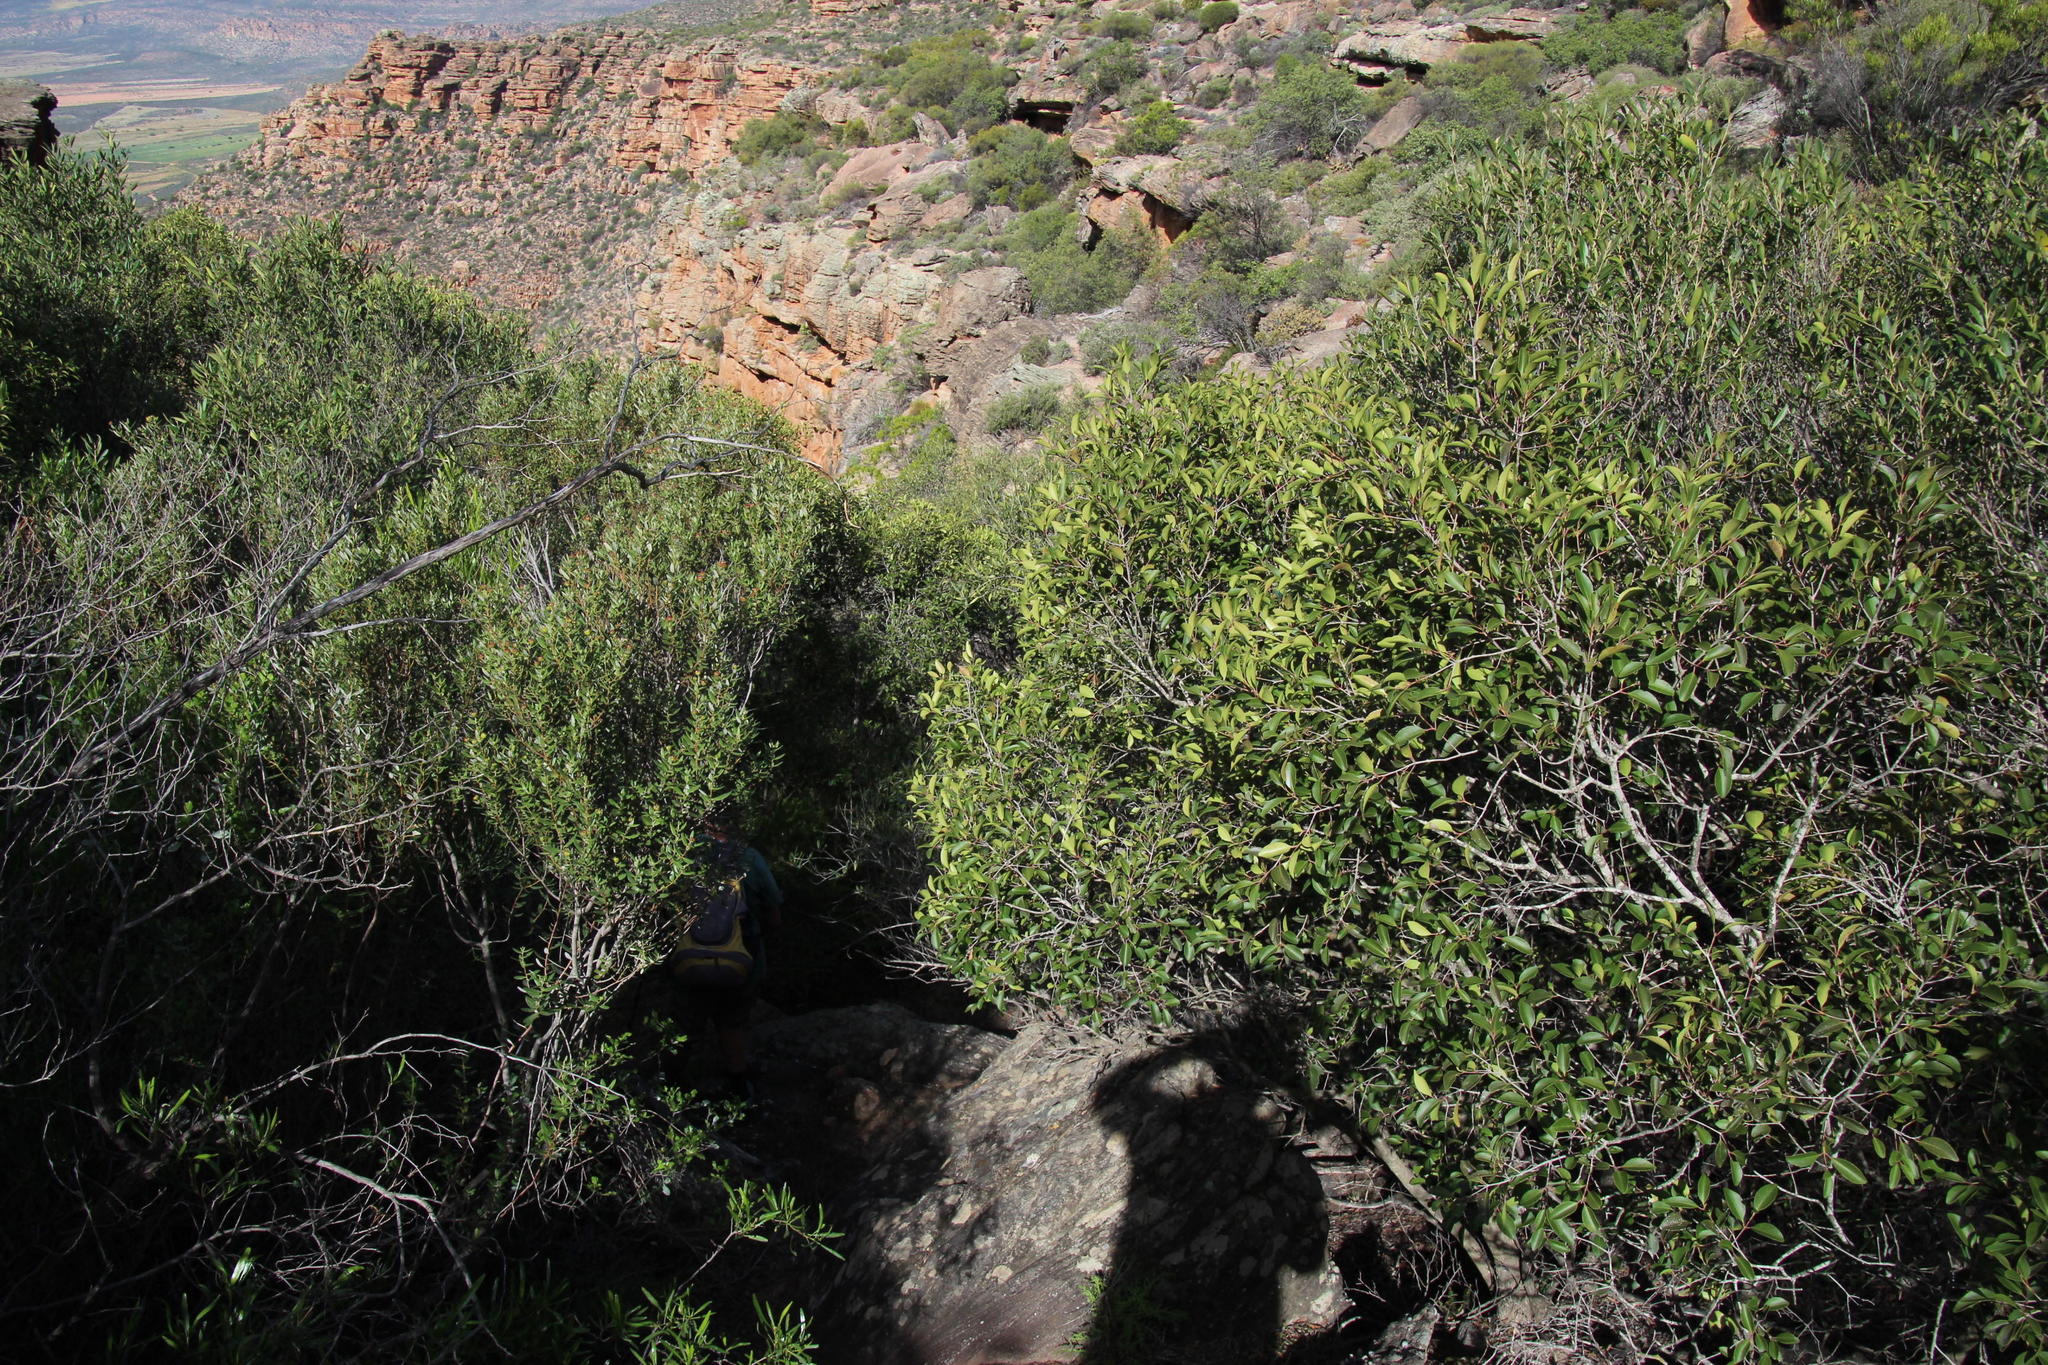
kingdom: Plantae
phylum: Tracheophyta
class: Magnoliopsida
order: Celastrales
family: Celastraceae
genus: Cassine
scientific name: Cassine peragua
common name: Cape saffron
